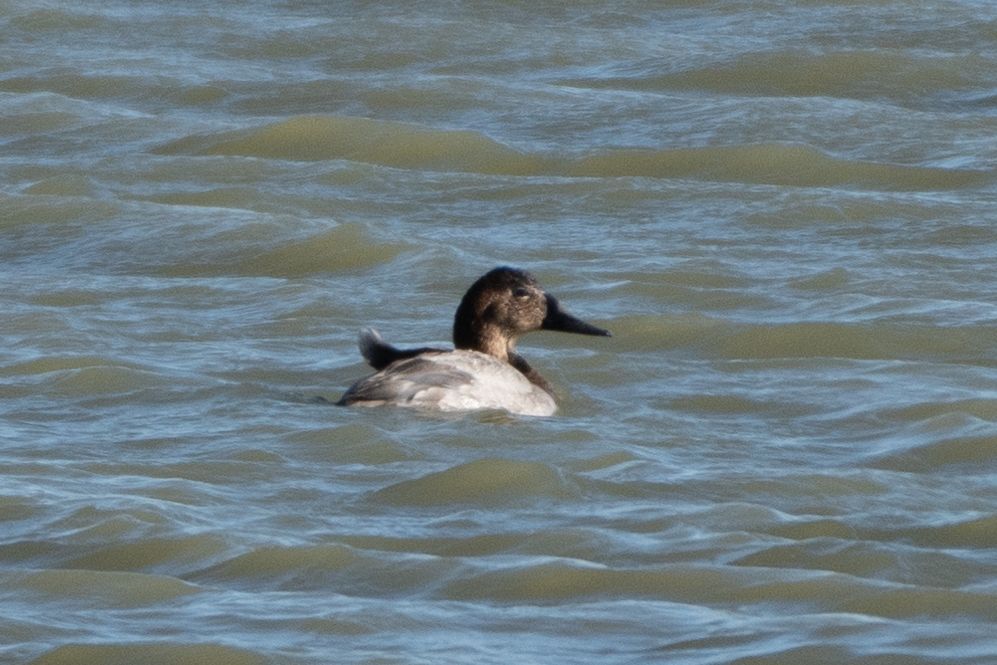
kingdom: Animalia
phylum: Chordata
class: Aves
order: Anseriformes
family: Anatidae
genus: Aythya
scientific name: Aythya valisineria
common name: Canvasback
